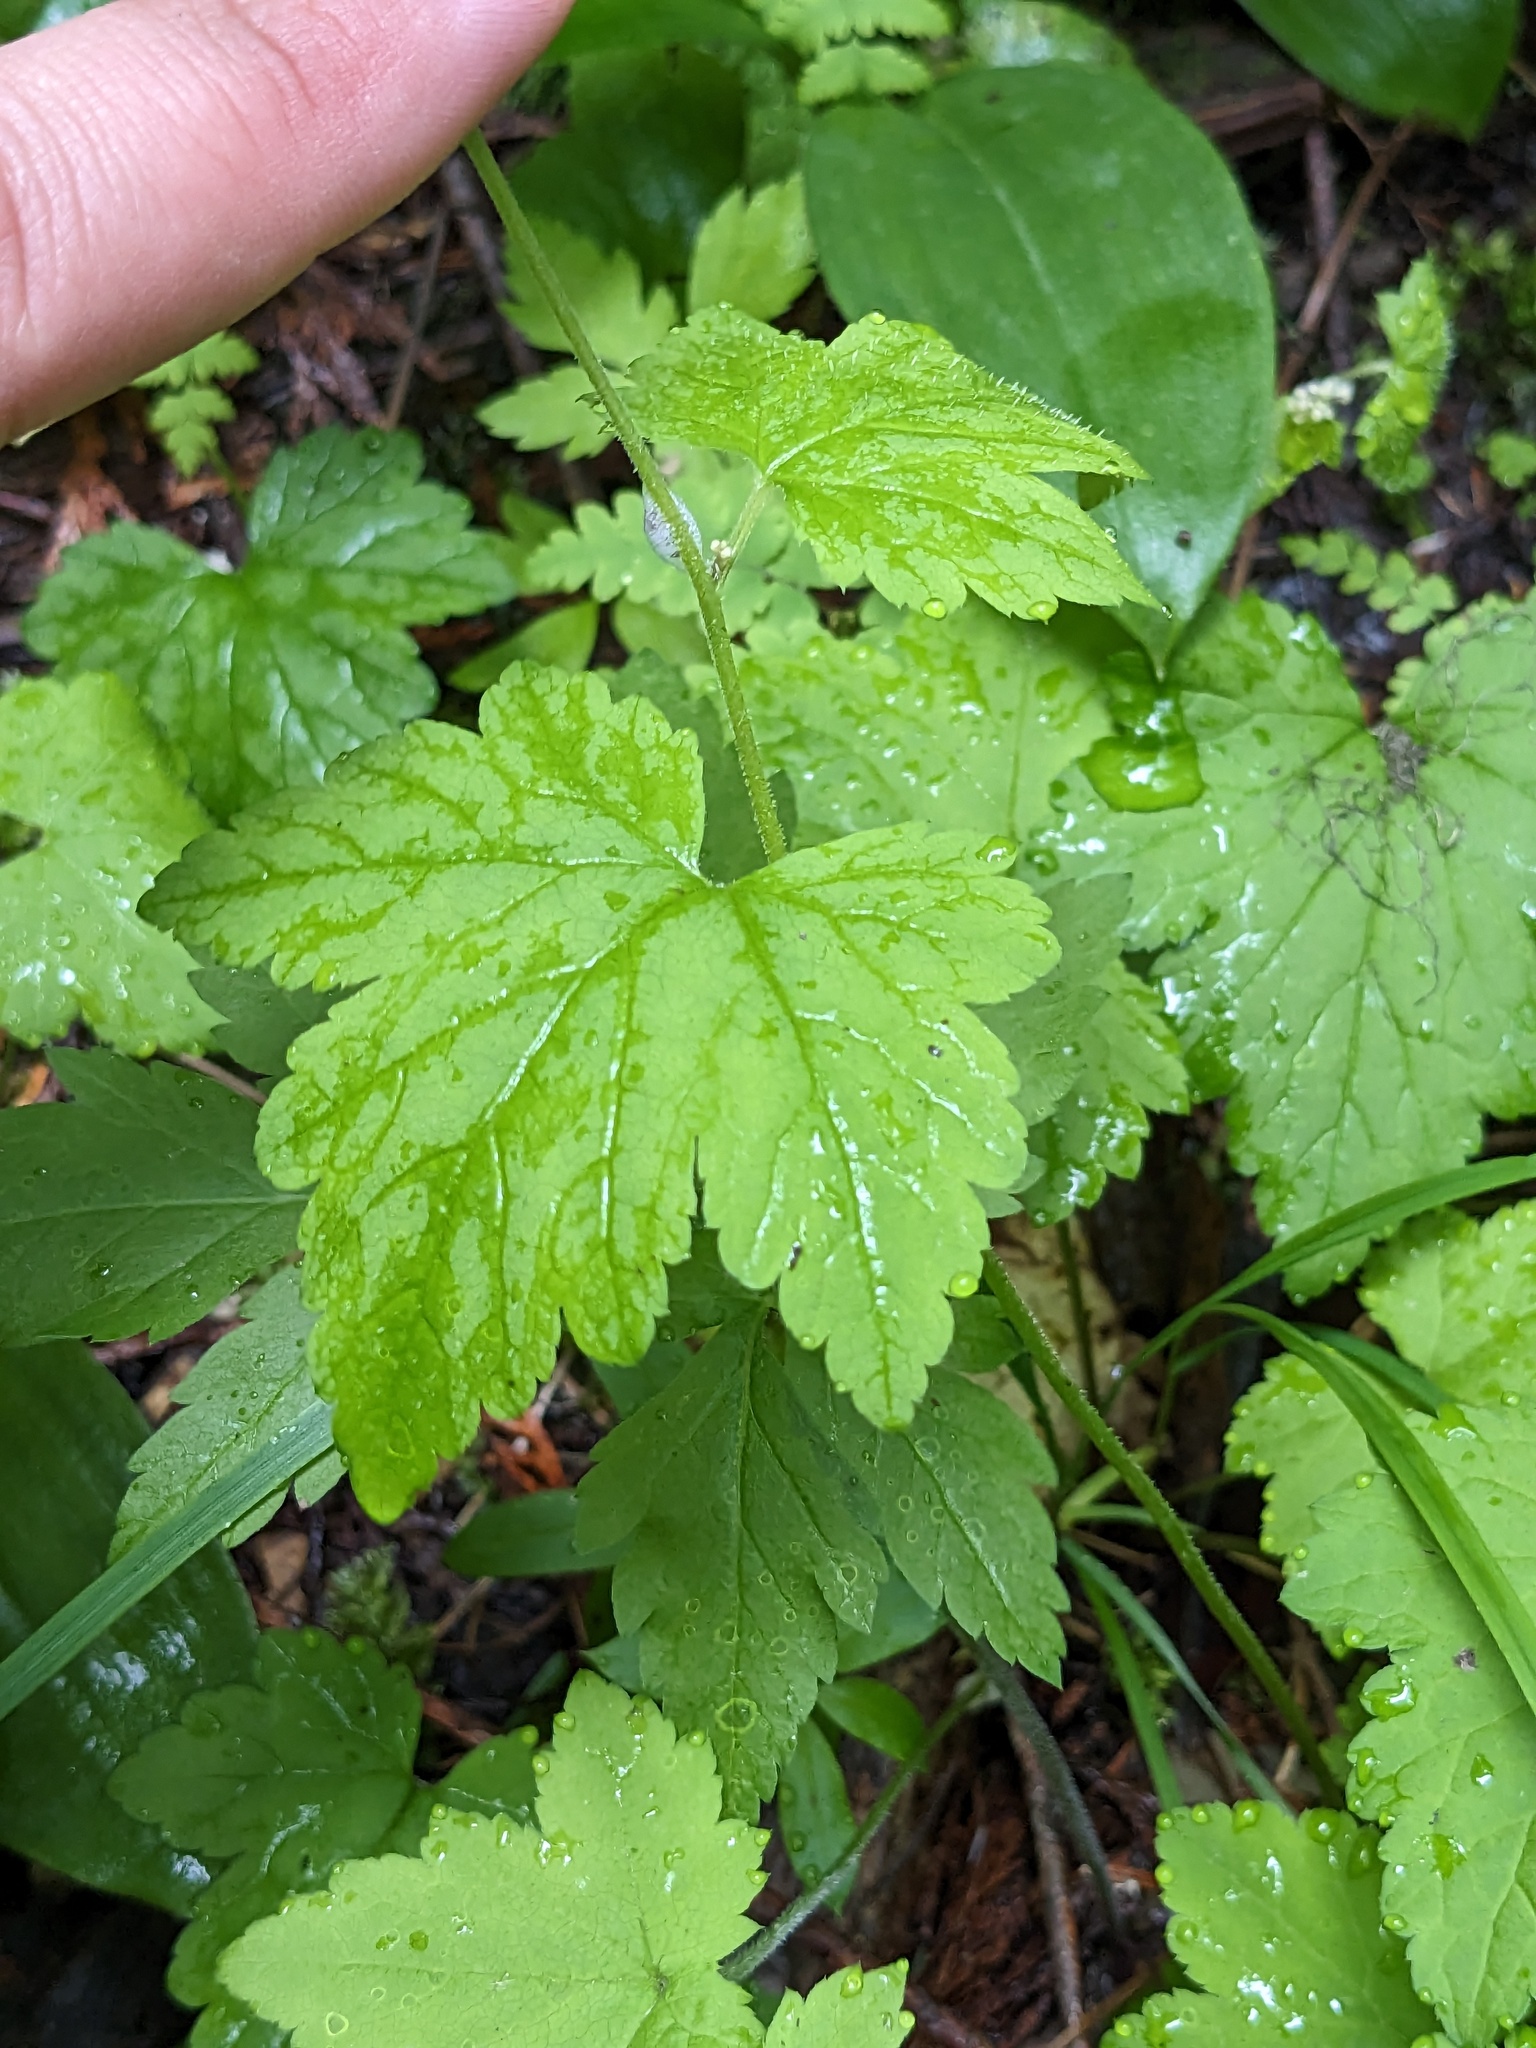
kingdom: Plantae
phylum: Tracheophyta
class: Magnoliopsida
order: Saxifragales
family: Saxifragaceae
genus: Tiarella
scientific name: Tiarella trifoliata
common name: Sugar-scoop
